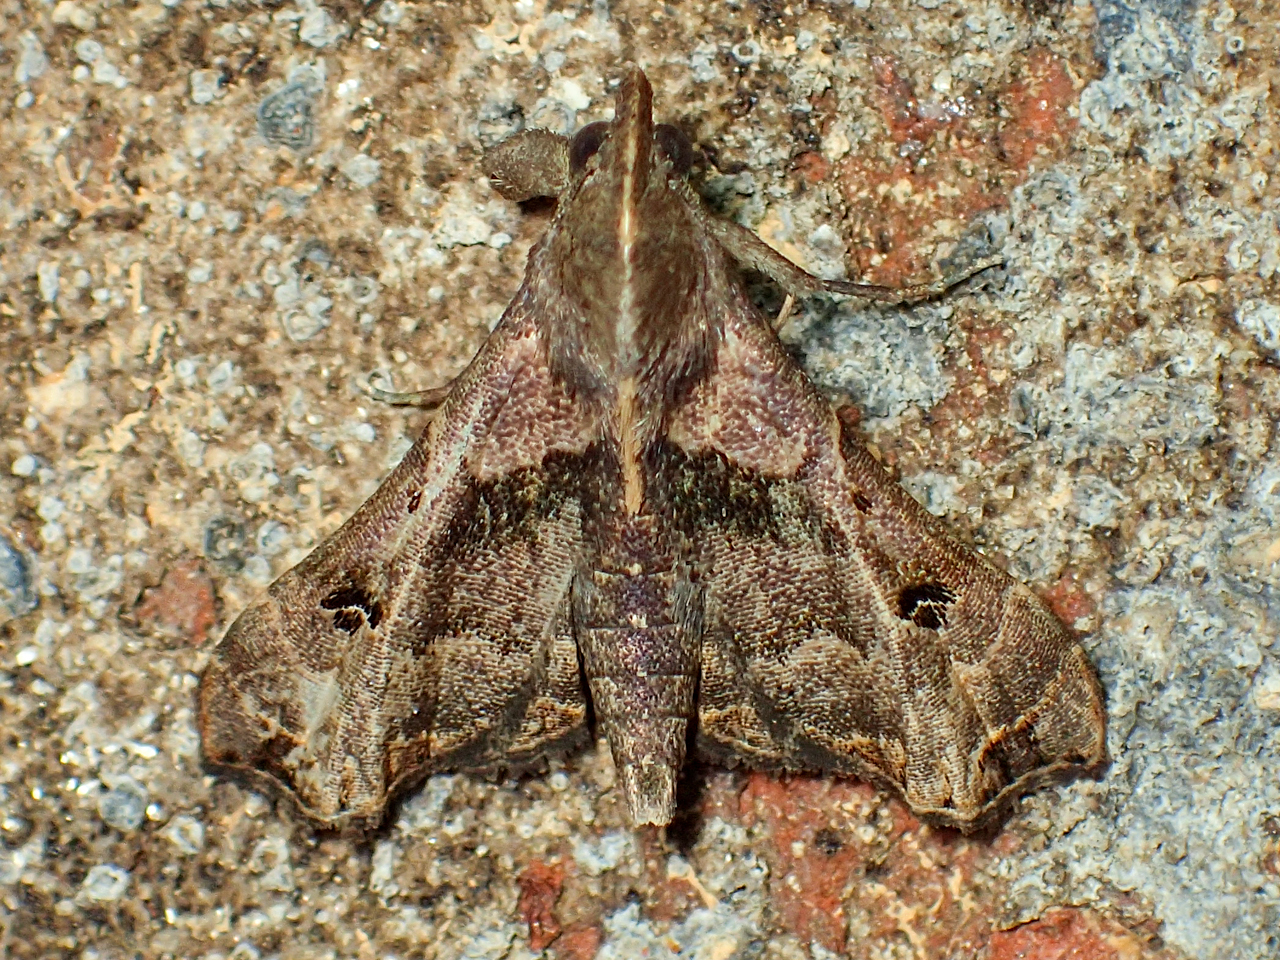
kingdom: Animalia
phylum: Arthropoda
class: Insecta
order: Lepidoptera
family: Erebidae
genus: Palthis
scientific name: Palthis asopialis
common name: Faint-spotted palthis moth
